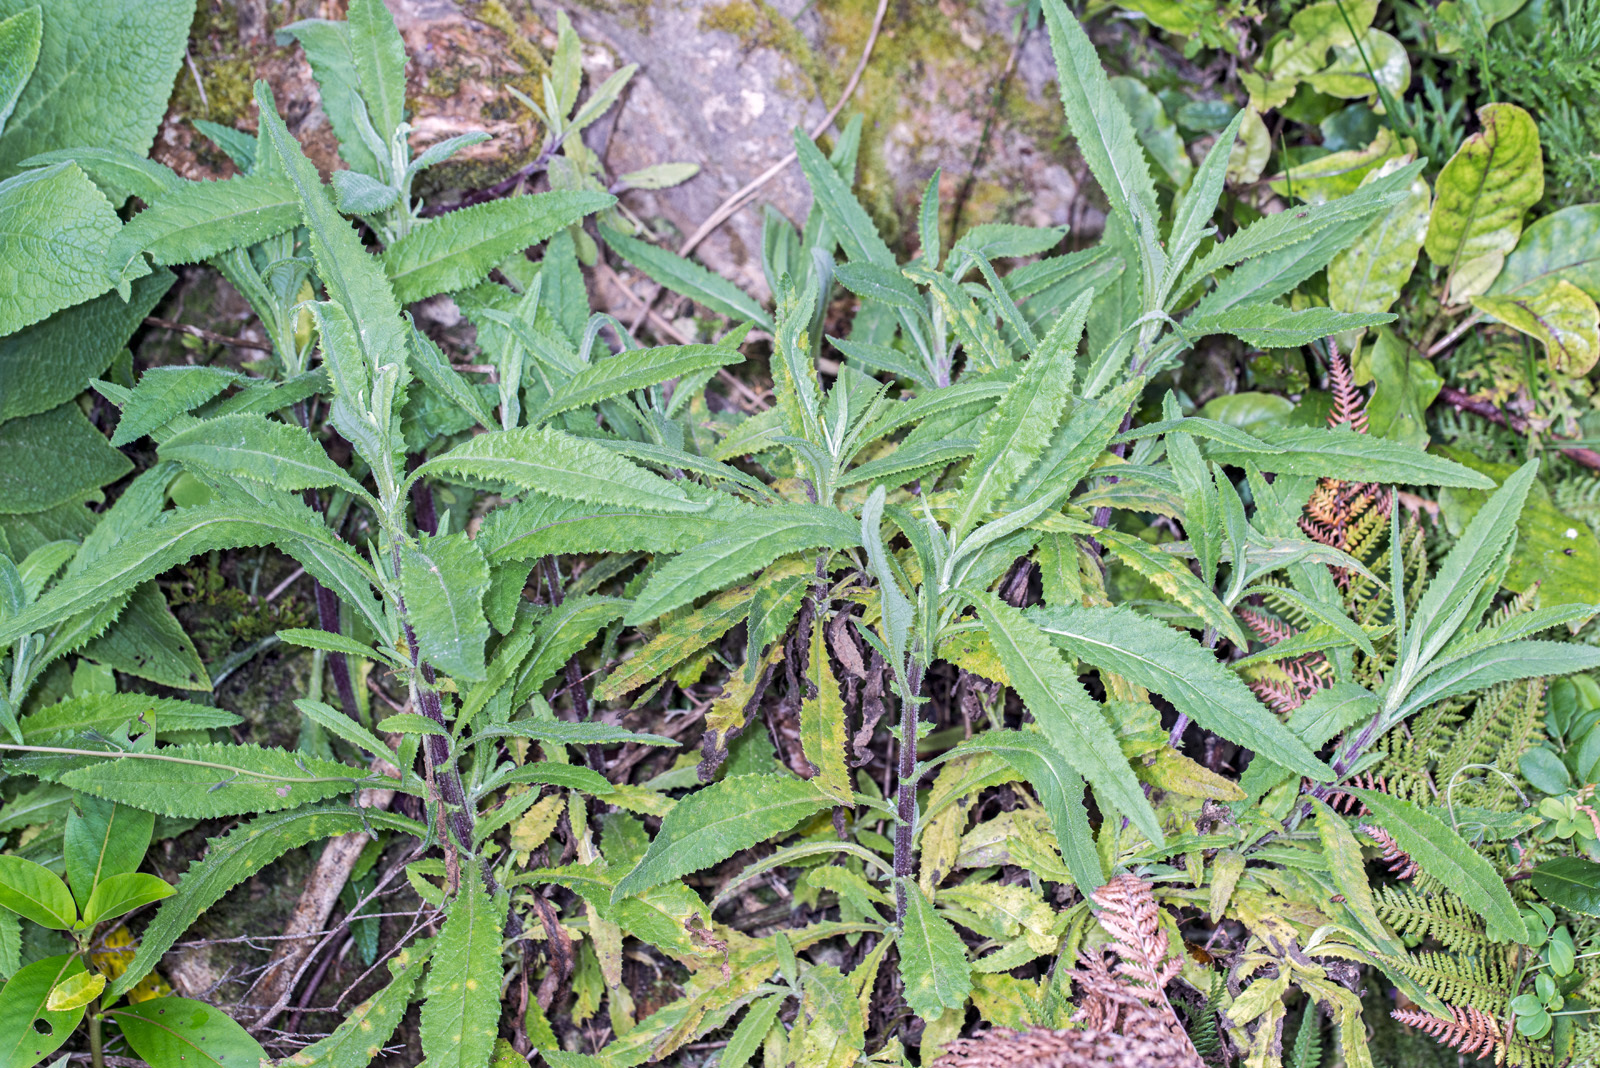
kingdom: Plantae
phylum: Tracheophyta
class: Magnoliopsida
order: Asterales
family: Asteraceae
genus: Senecio
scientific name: Senecio minimus
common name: Toothed fireweed
